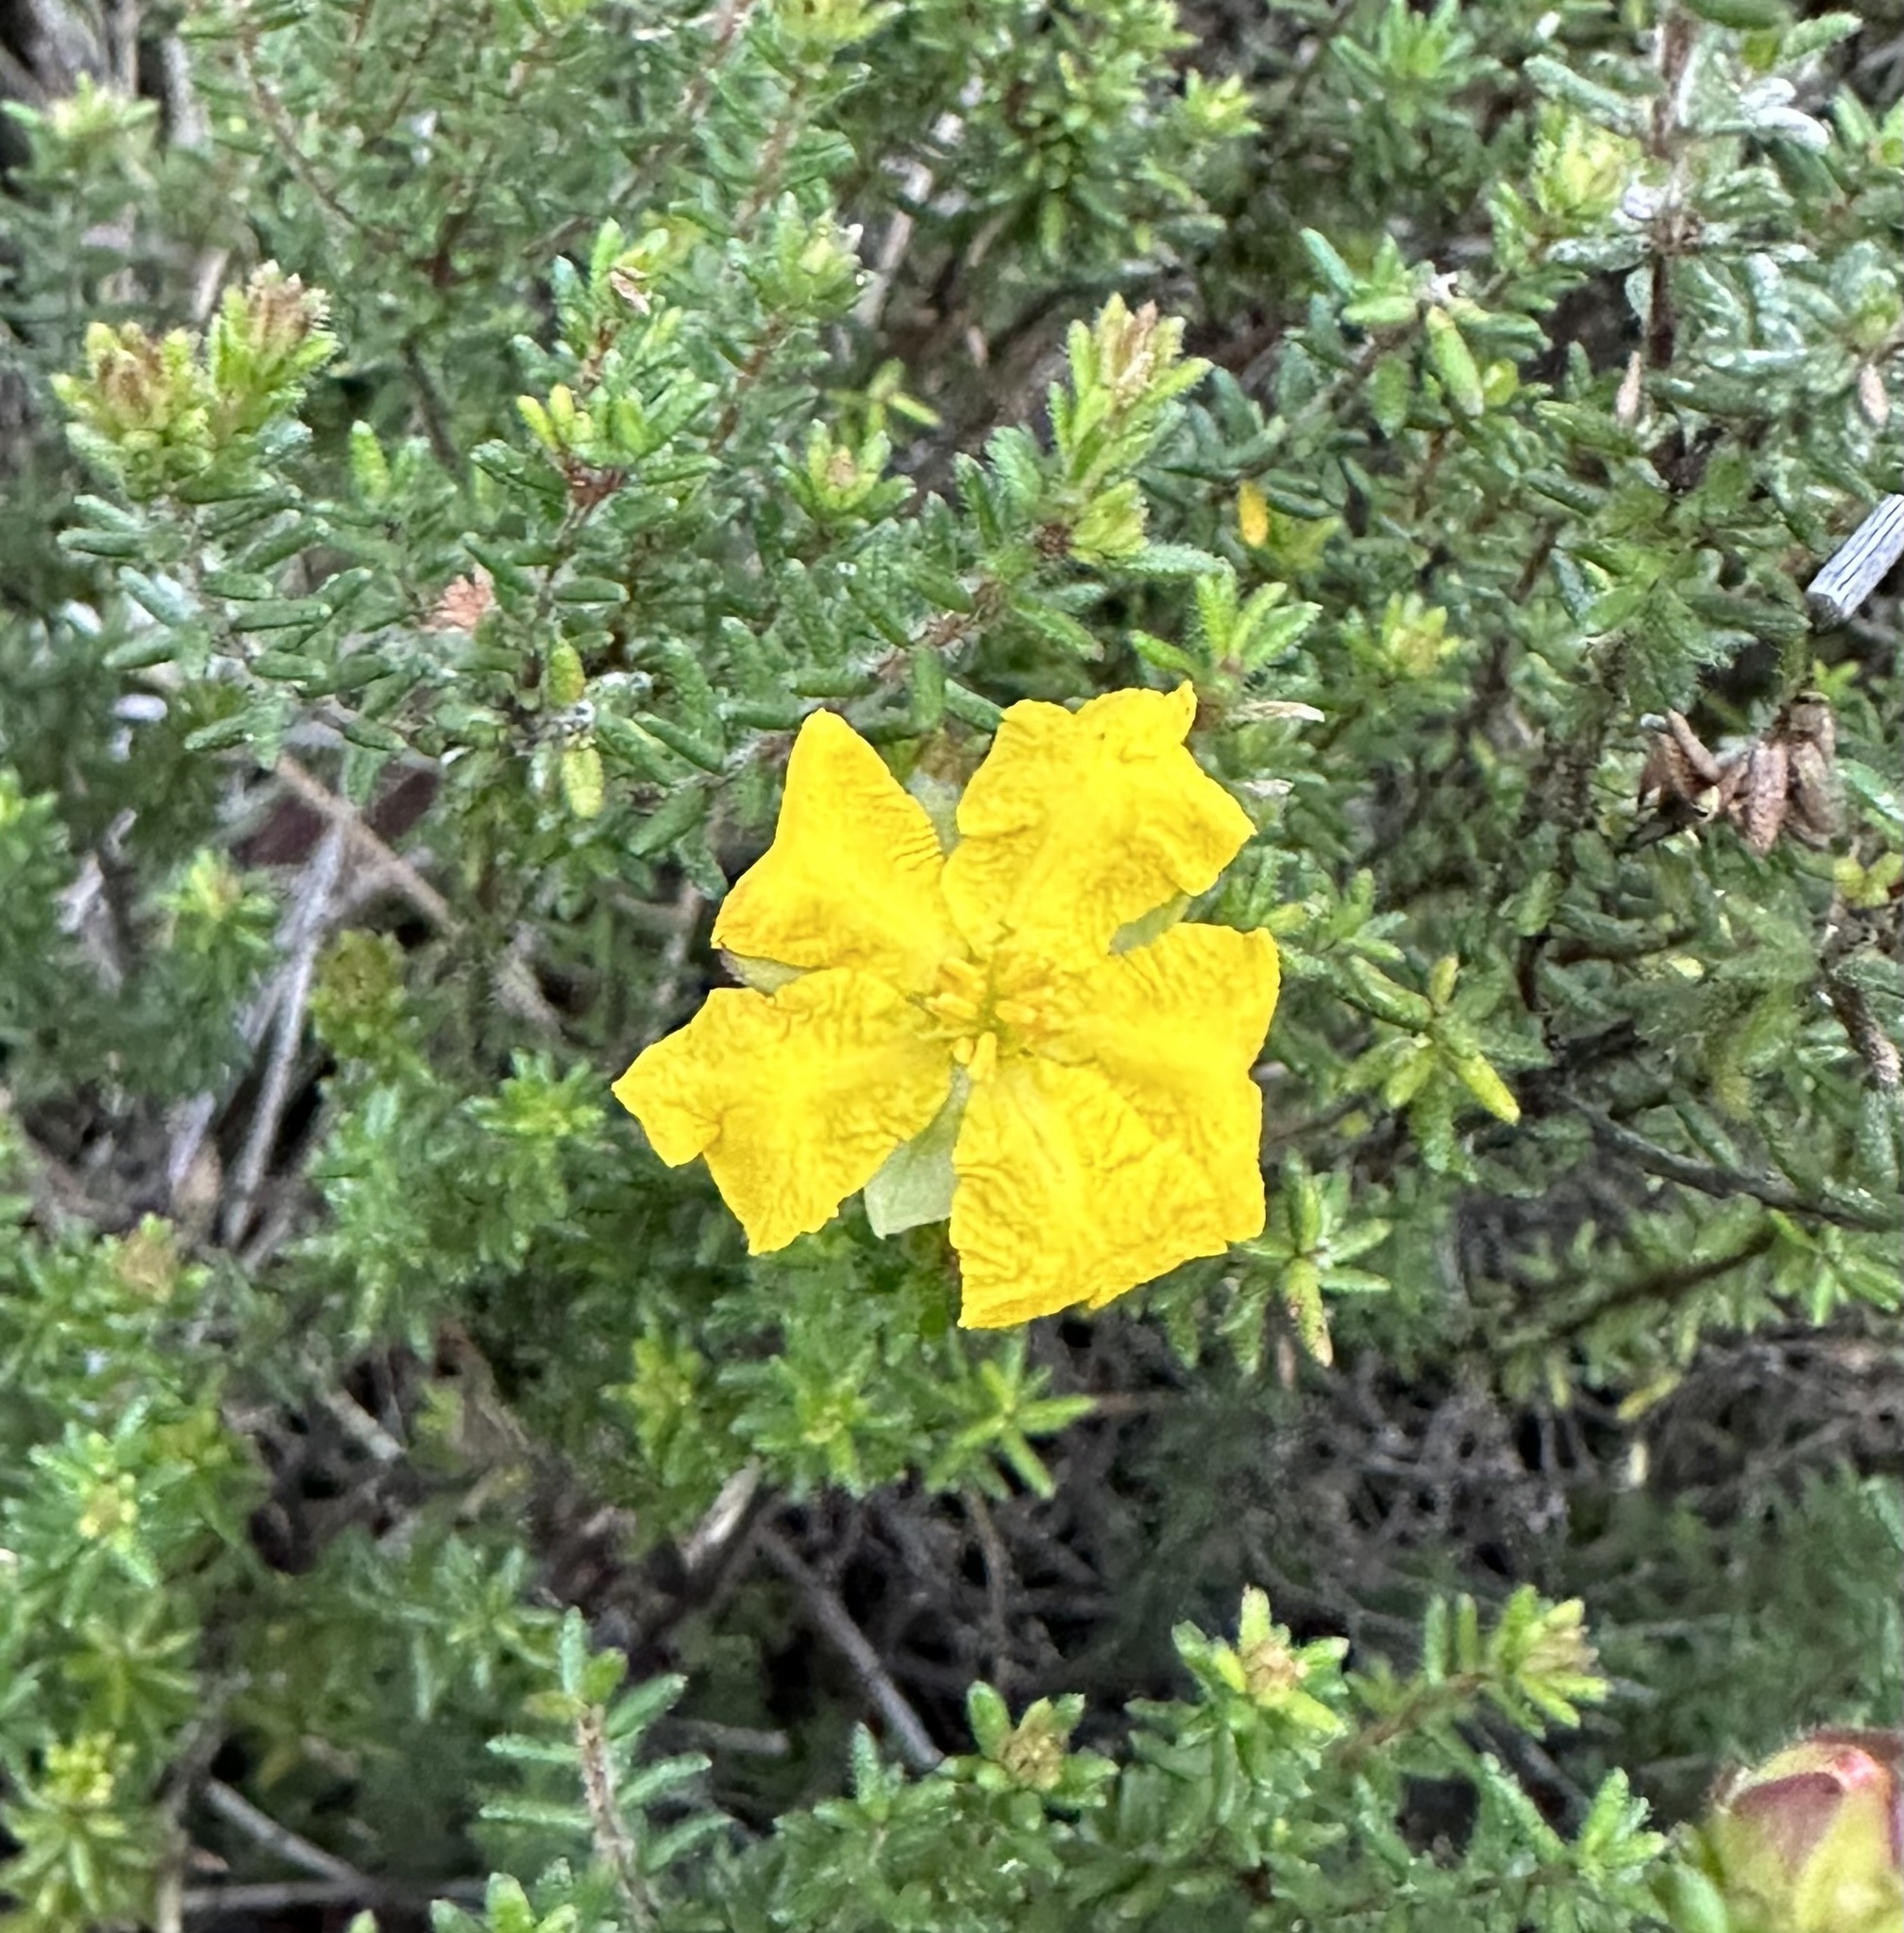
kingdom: Plantae
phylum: Tracheophyta
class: Magnoliopsida
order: Dilleniales
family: Dilleniaceae
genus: Hibbertia
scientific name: Hibbertia vestita
